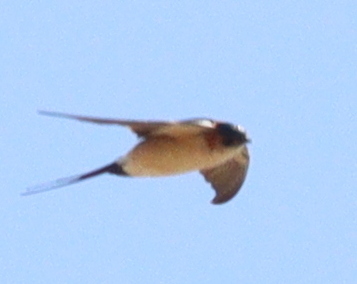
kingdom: Animalia
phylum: Chordata
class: Aves
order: Passeriformes
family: Hirundinidae
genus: Cecropis
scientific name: Cecropis daurica
